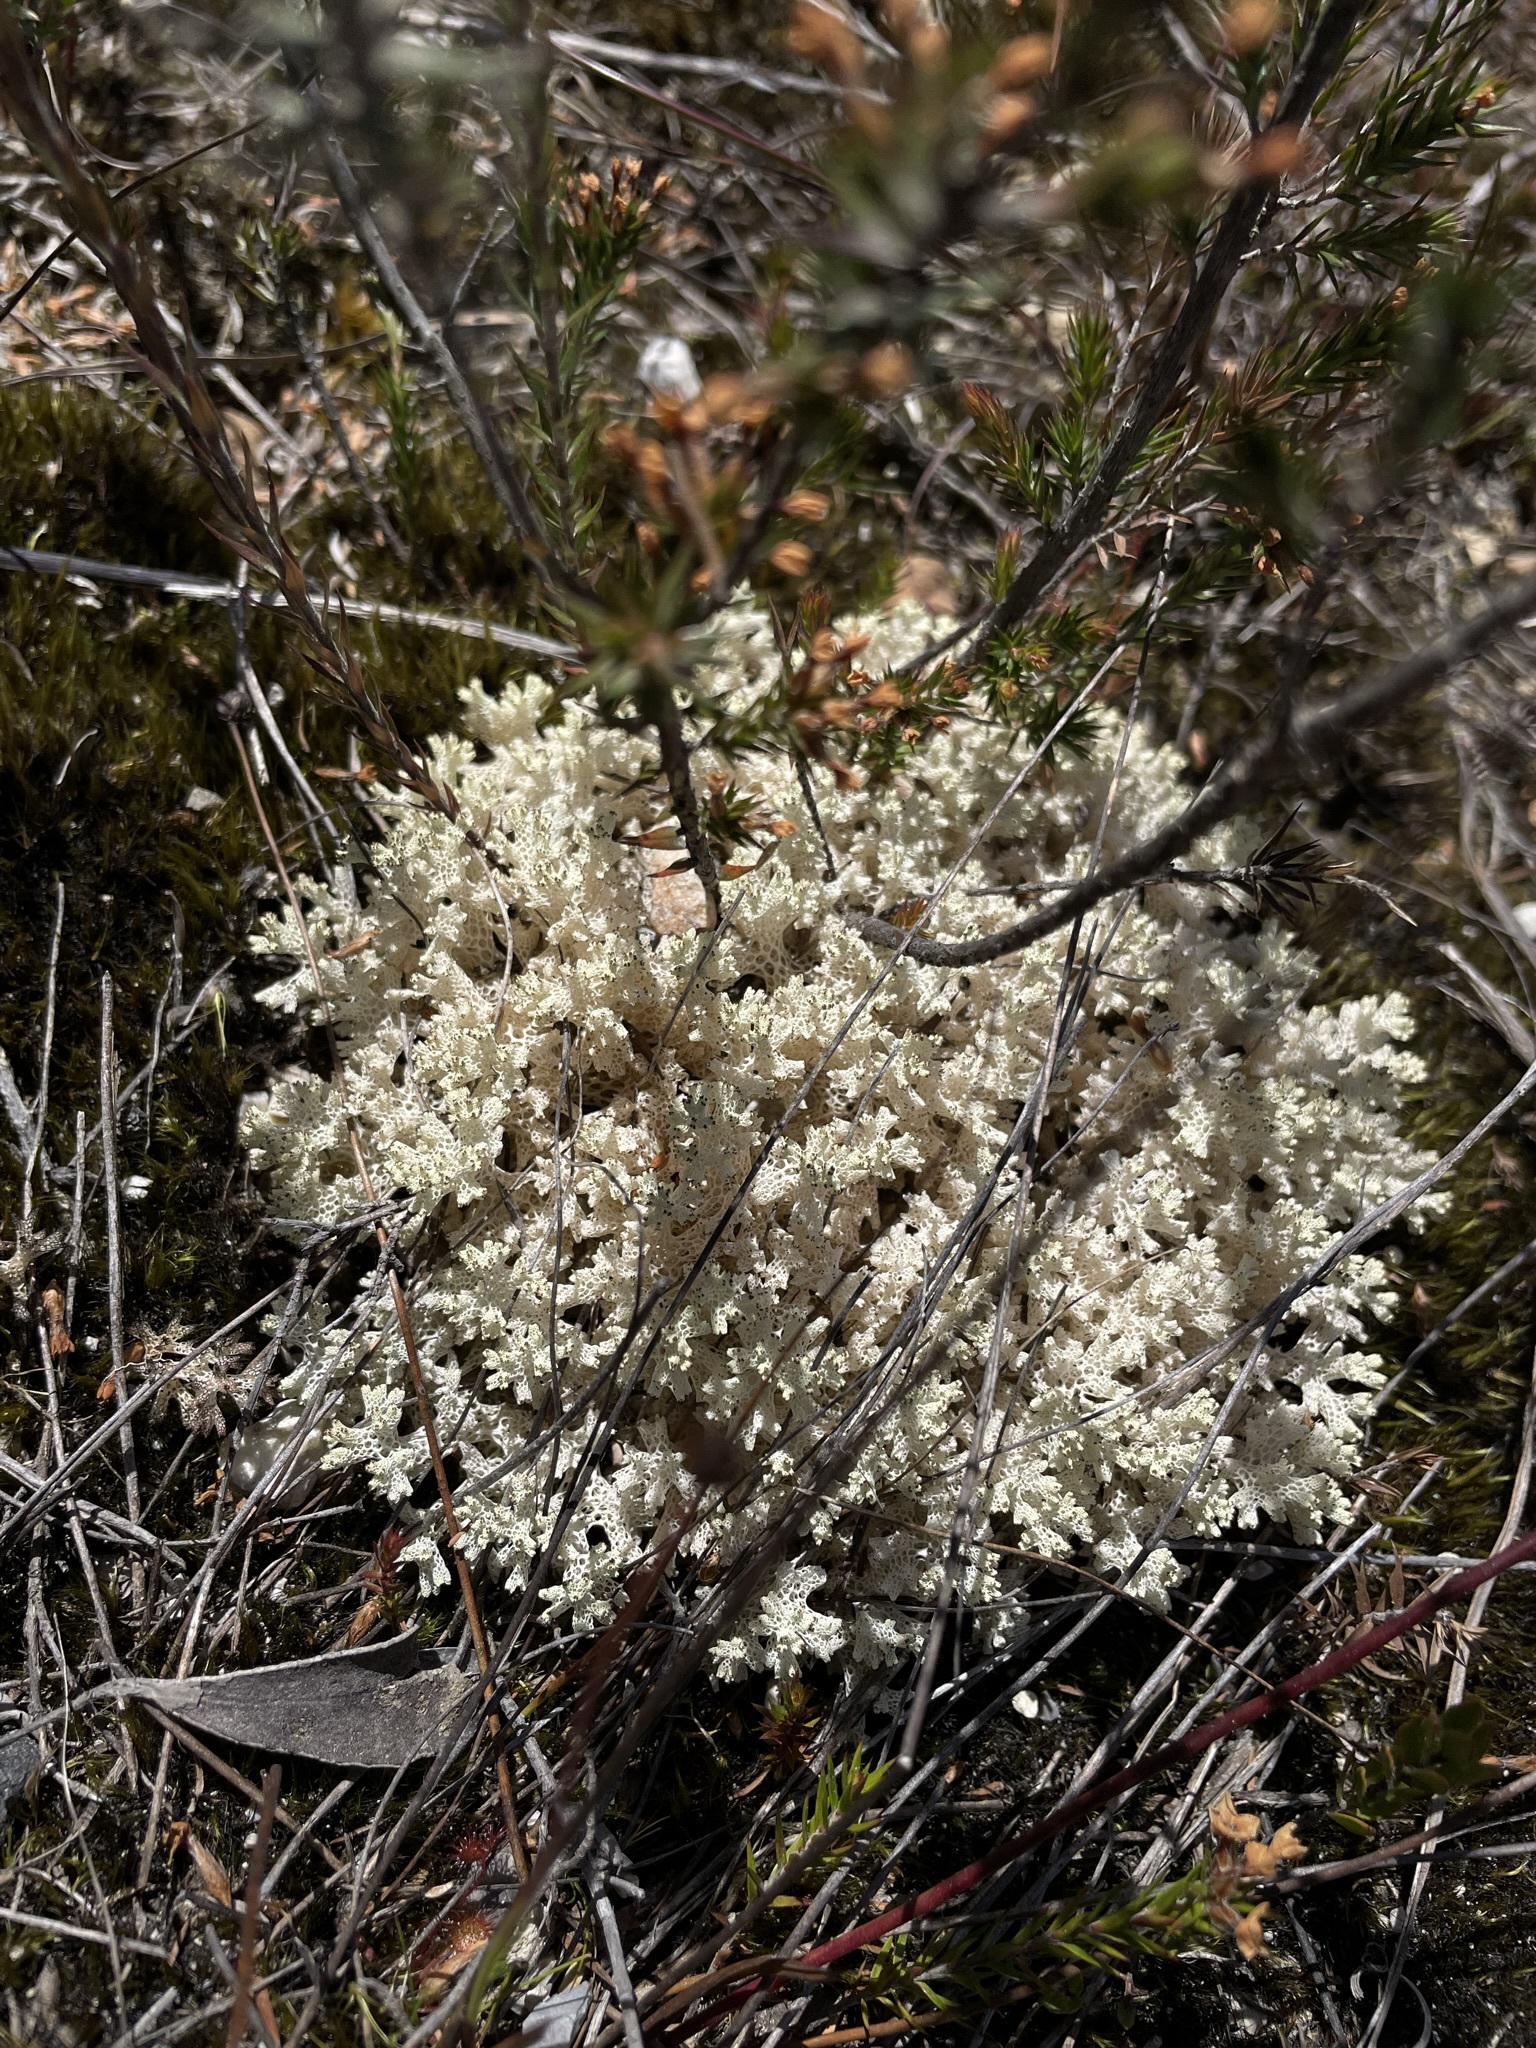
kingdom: Fungi
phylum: Ascomycota
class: Lecanoromycetes
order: Lecanorales
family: Cladoniaceae
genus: Pulchrocladia
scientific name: Pulchrocladia retipora
